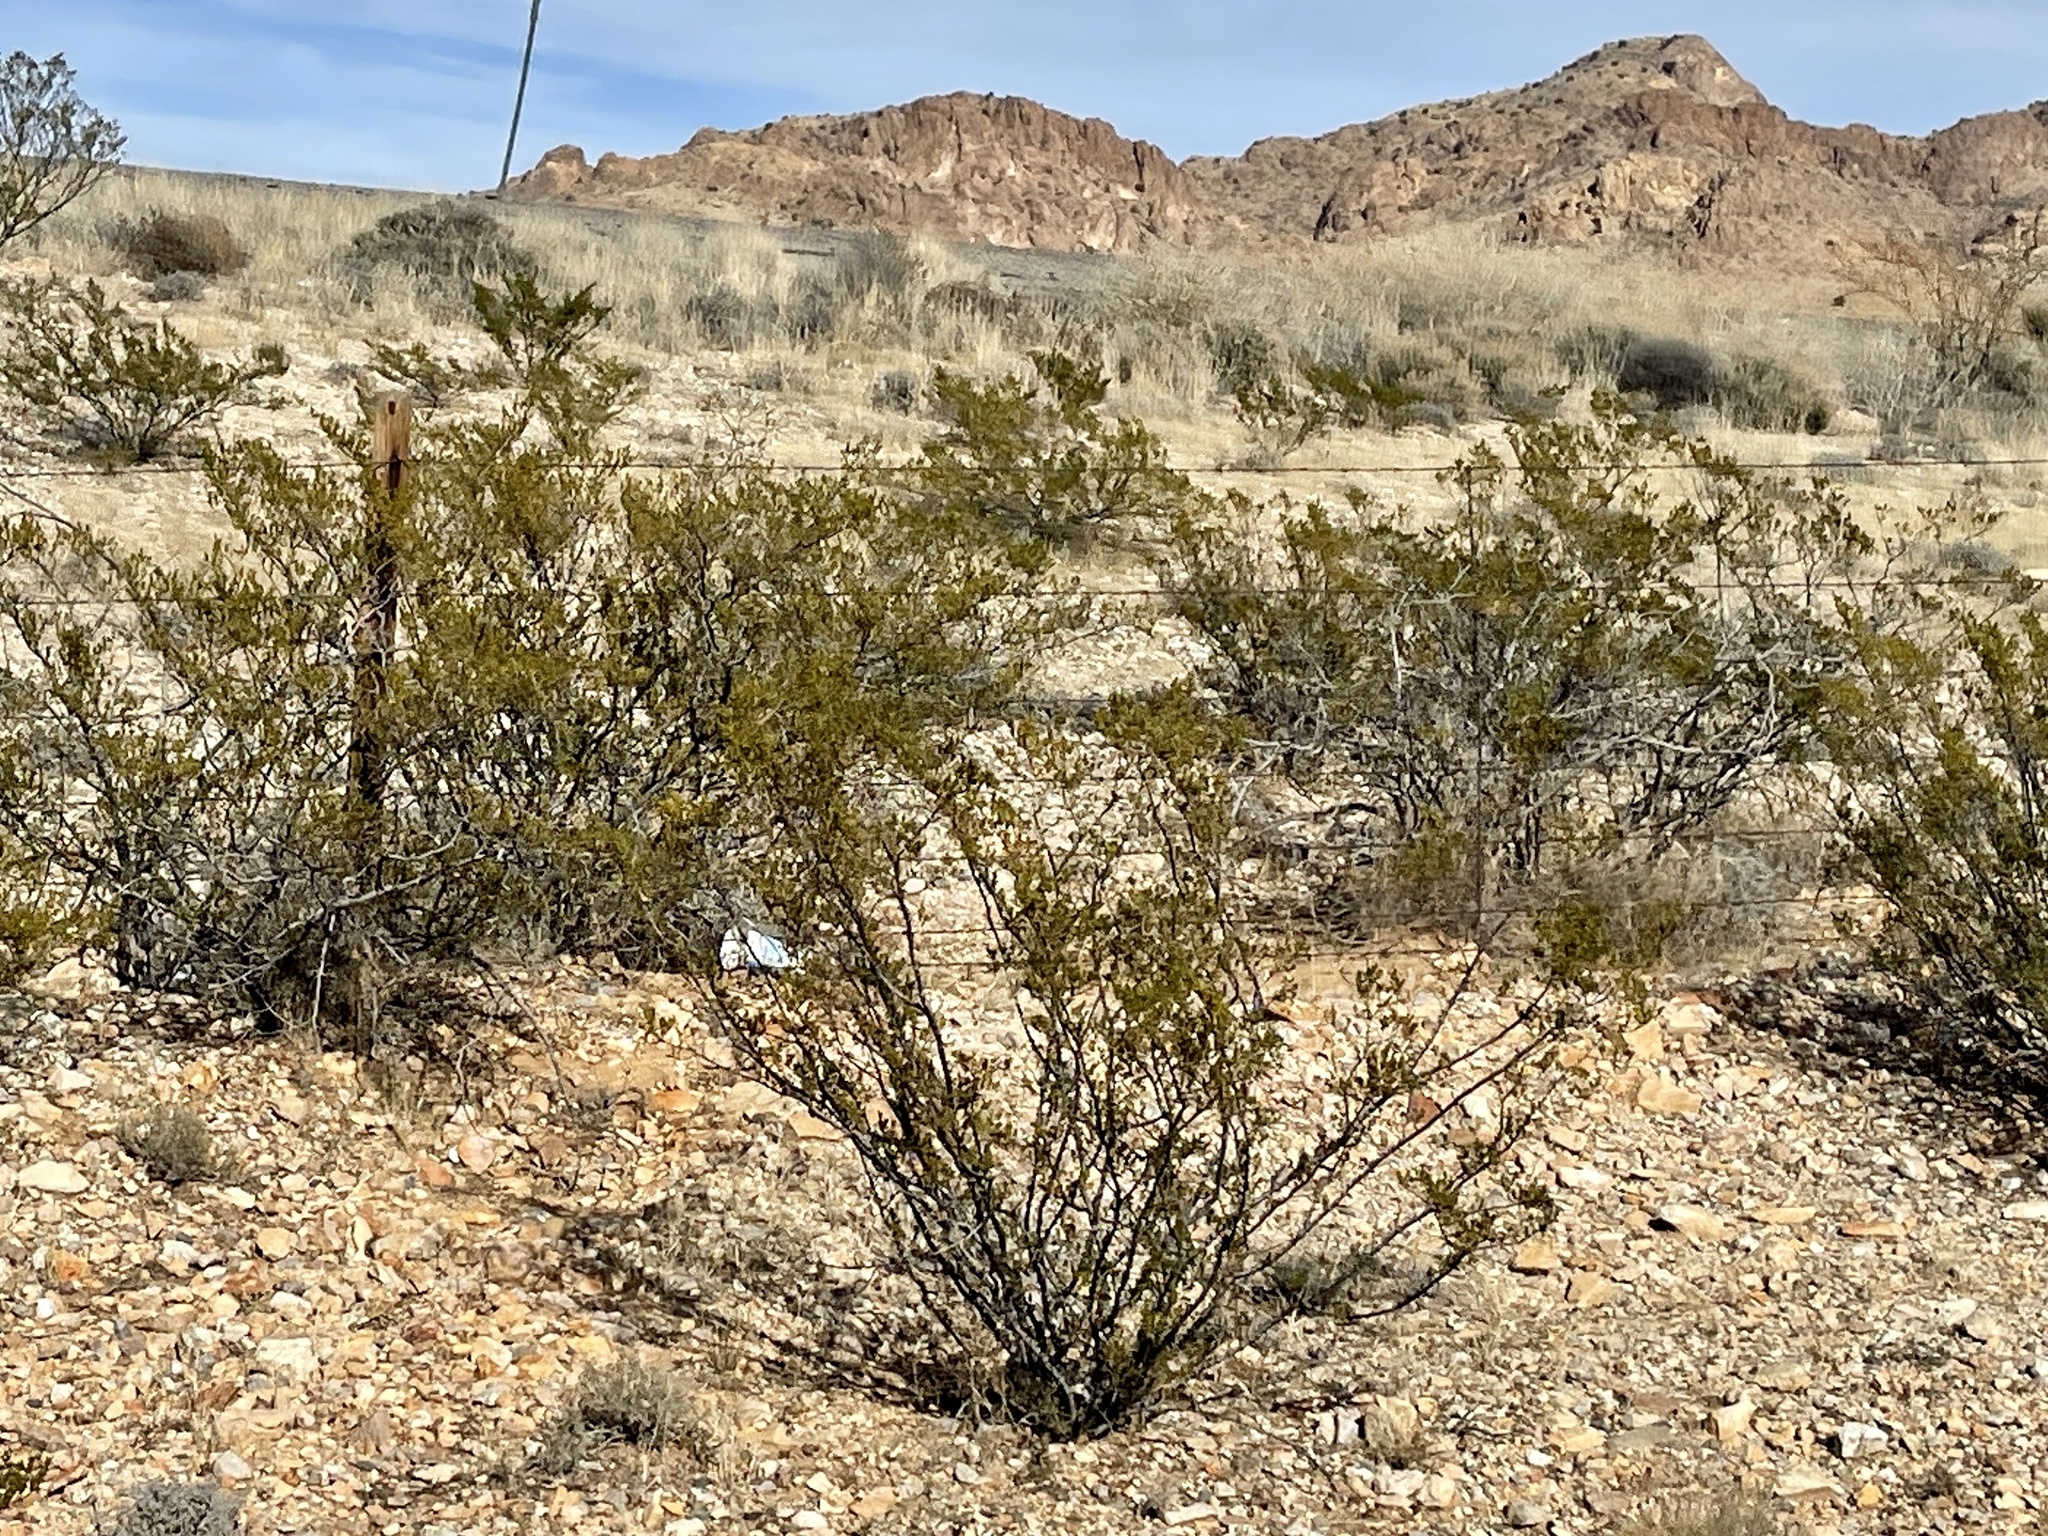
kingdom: Plantae
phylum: Tracheophyta
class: Magnoliopsida
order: Zygophyllales
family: Zygophyllaceae
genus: Larrea
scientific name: Larrea tridentata
